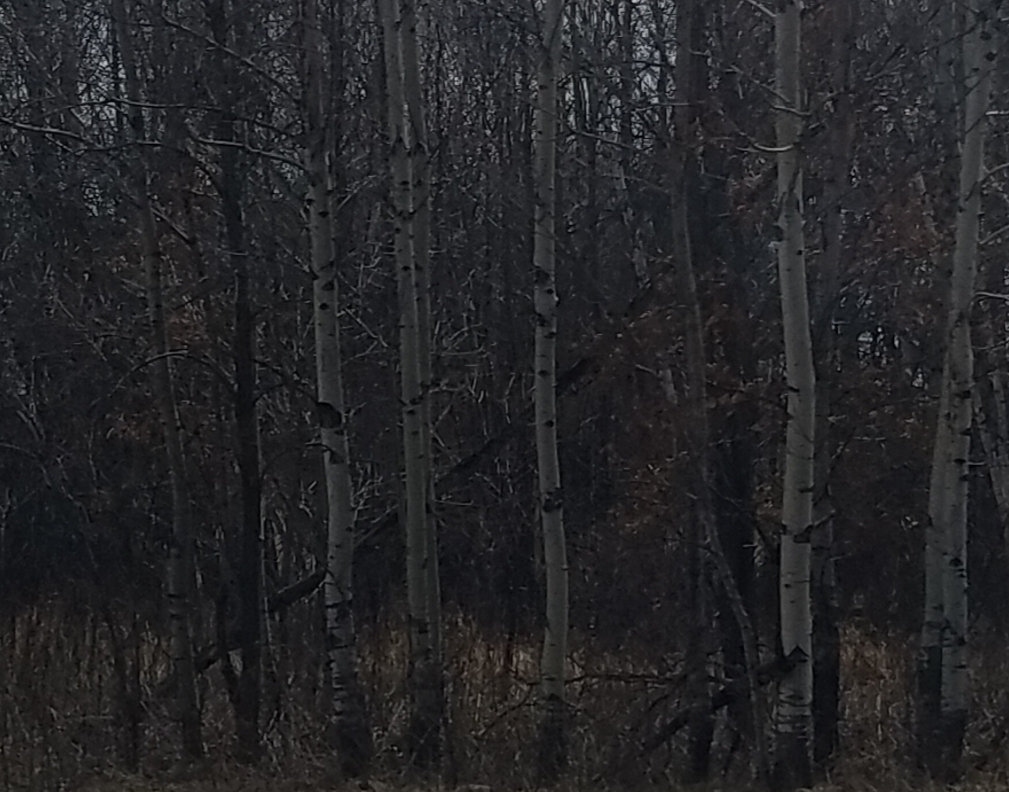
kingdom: Plantae
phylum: Tracheophyta
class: Magnoliopsida
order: Malpighiales
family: Salicaceae
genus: Populus
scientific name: Populus tremuloides
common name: Quaking aspen
